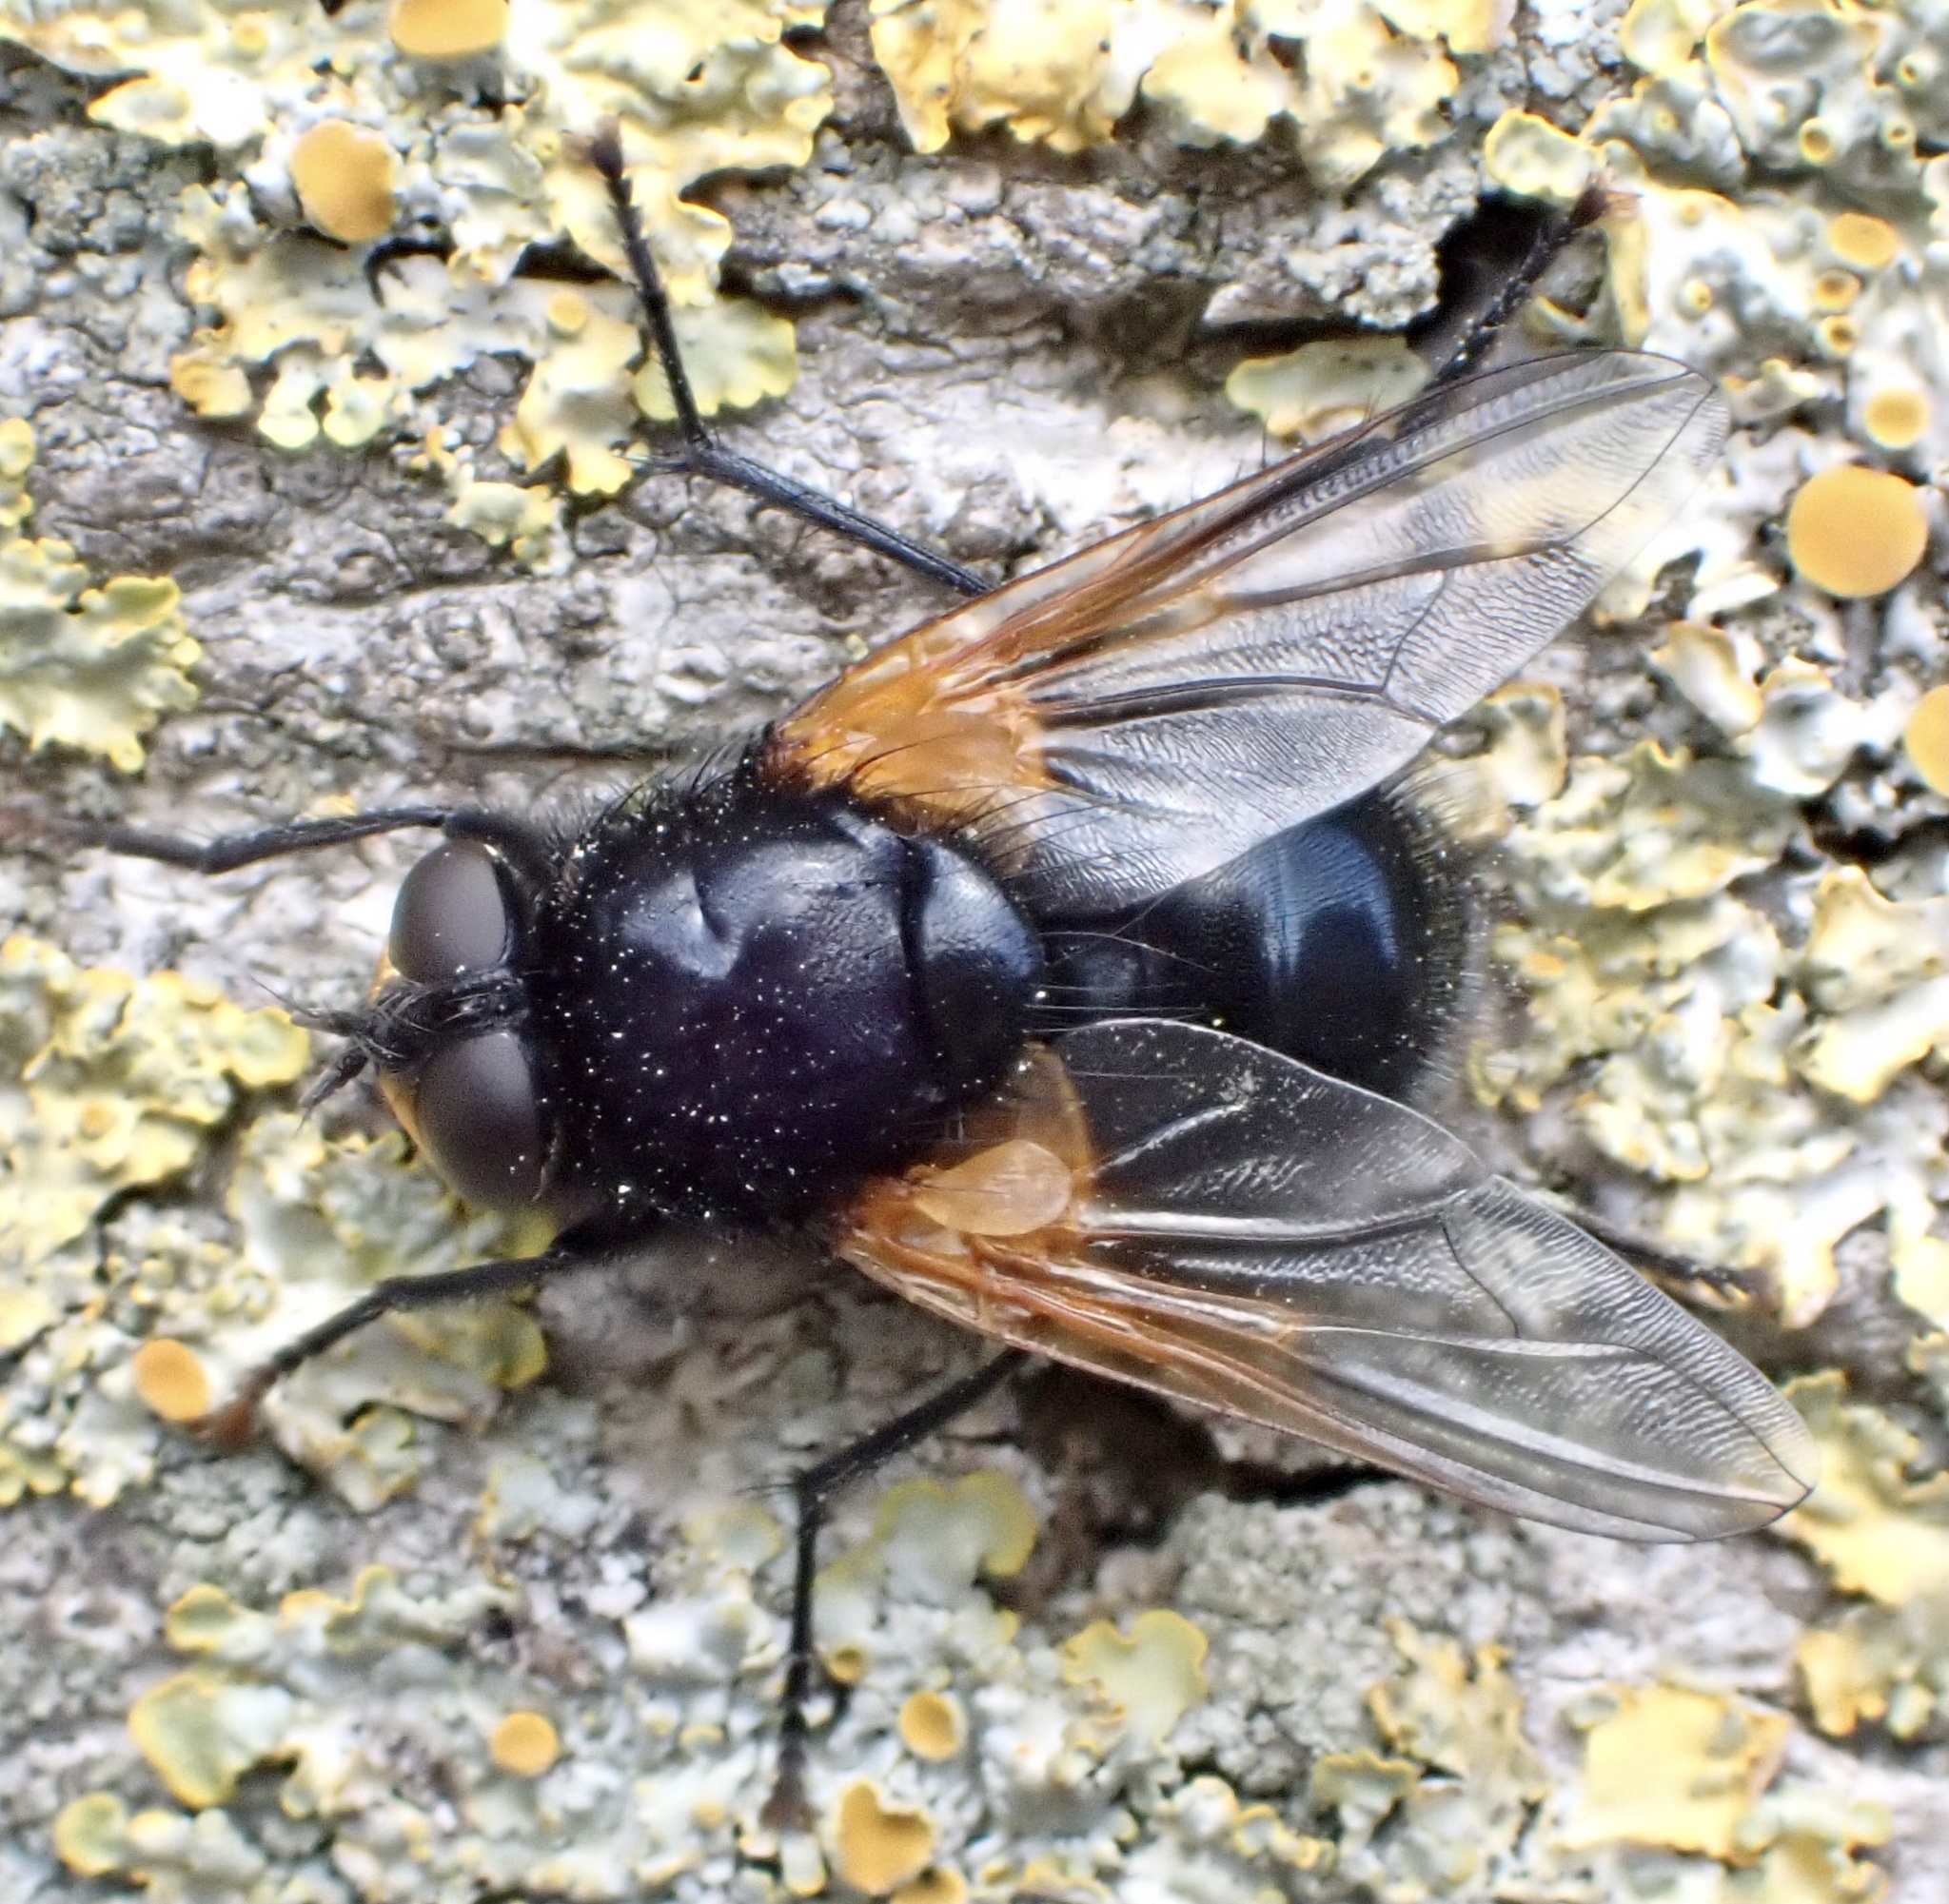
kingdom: Animalia
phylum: Arthropoda
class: Insecta
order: Diptera
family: Muscidae
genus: Mesembrina
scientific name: Mesembrina meridiana
